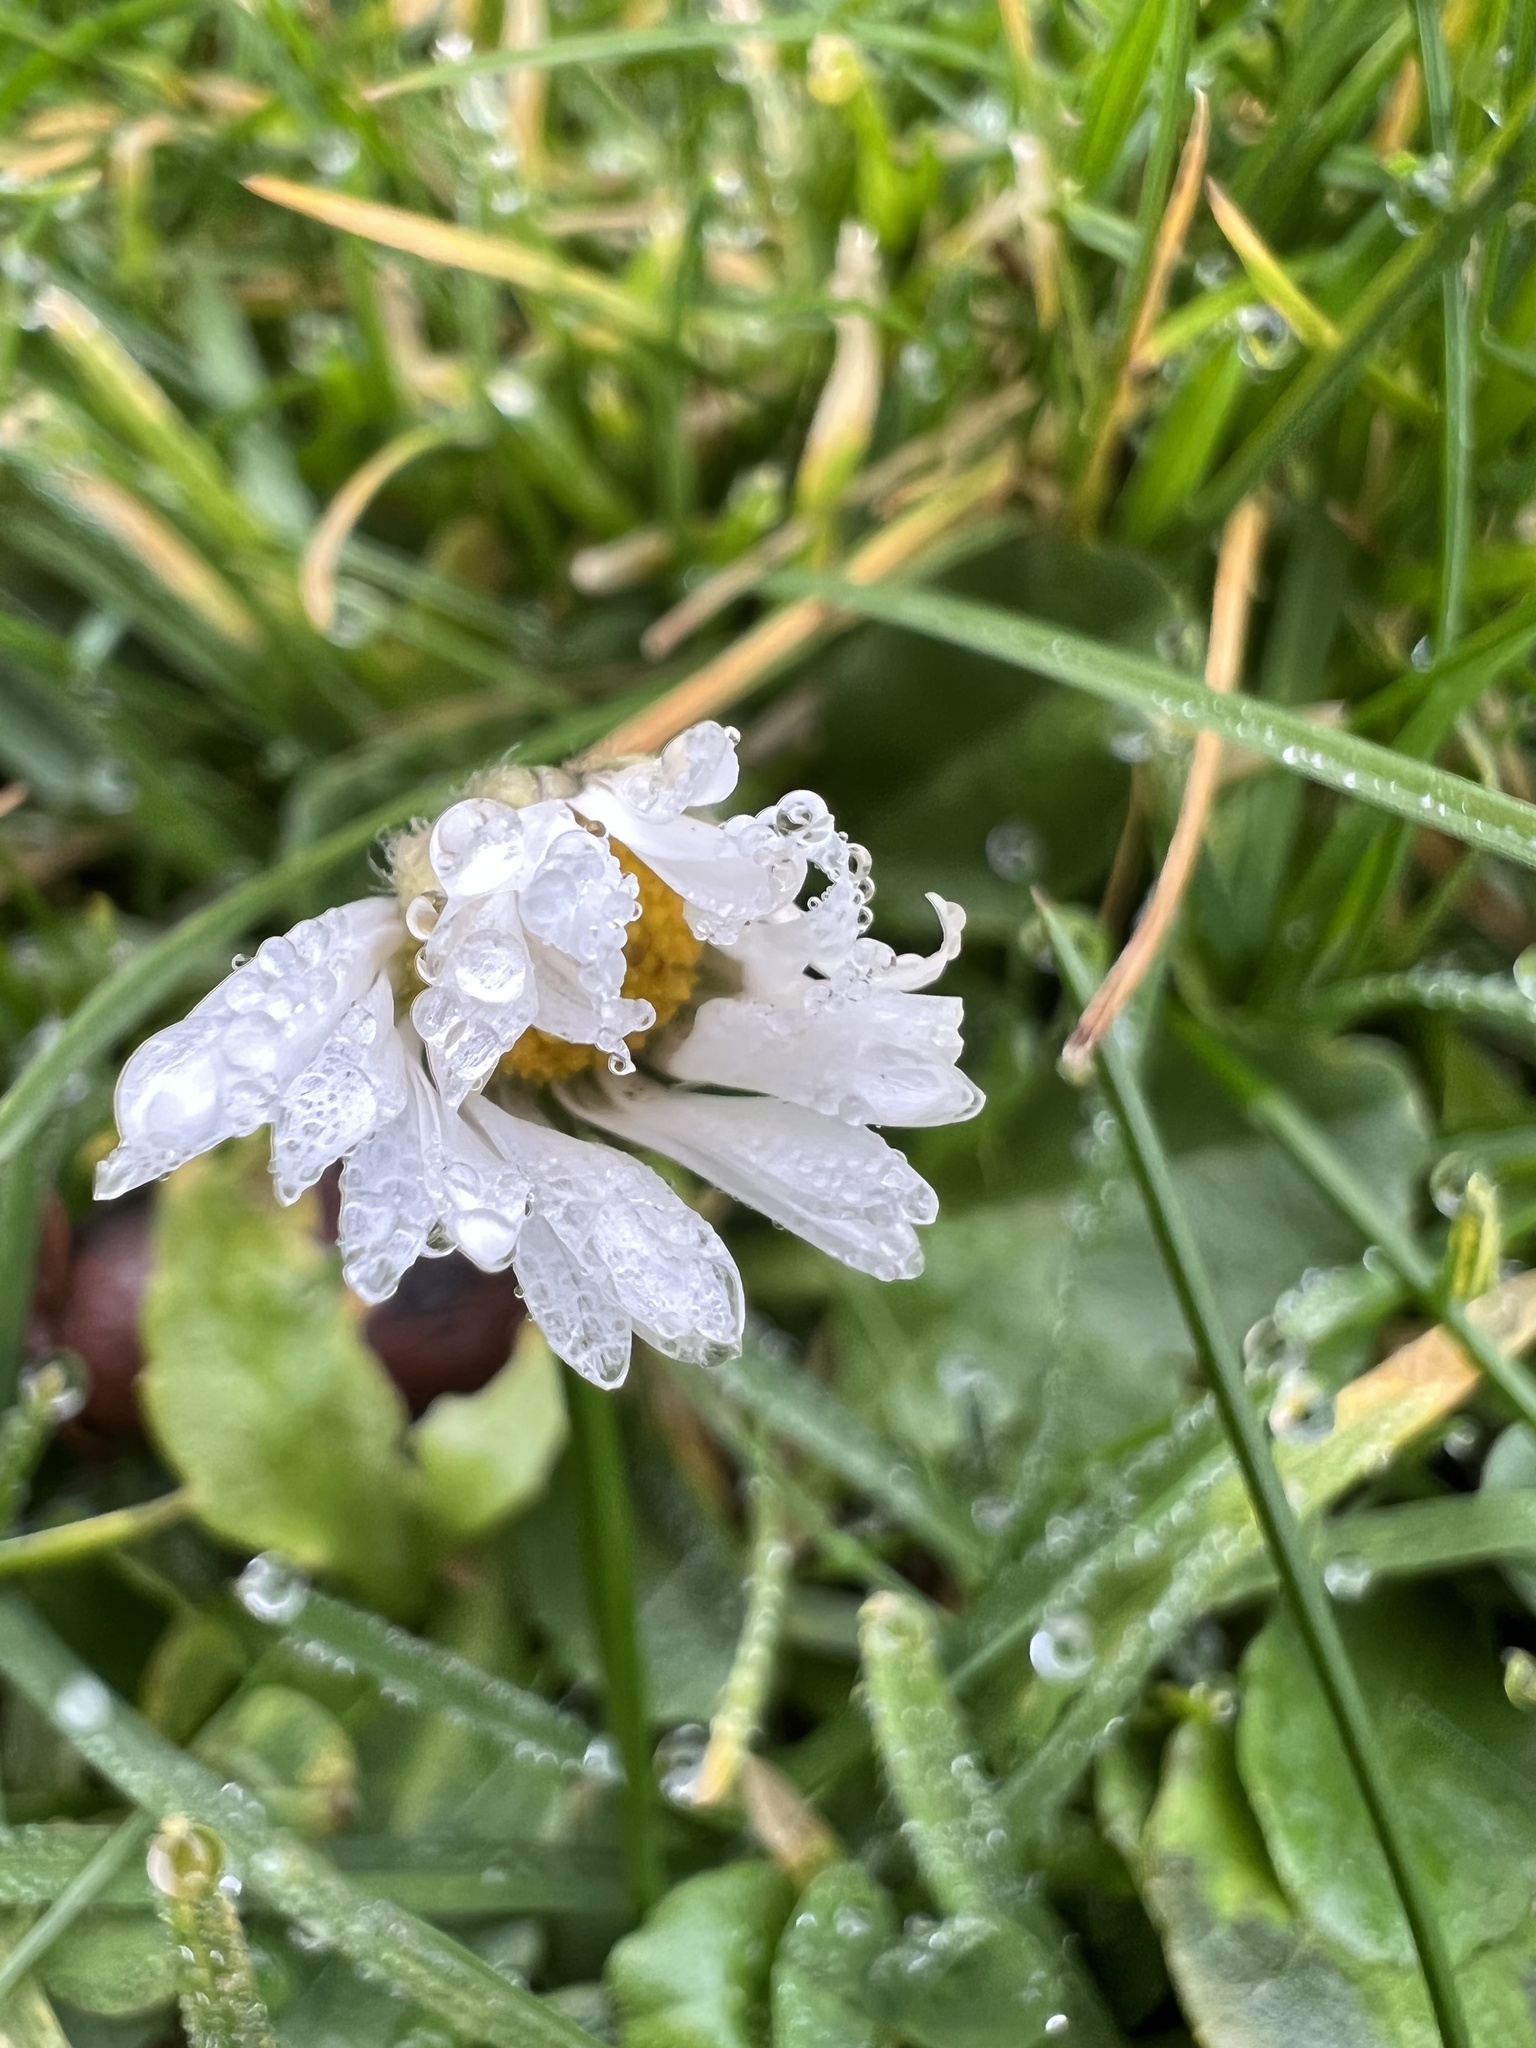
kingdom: Plantae
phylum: Tracheophyta
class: Magnoliopsida
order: Asterales
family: Asteraceae
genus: Bellis
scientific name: Bellis perennis
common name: Lawndaisy
